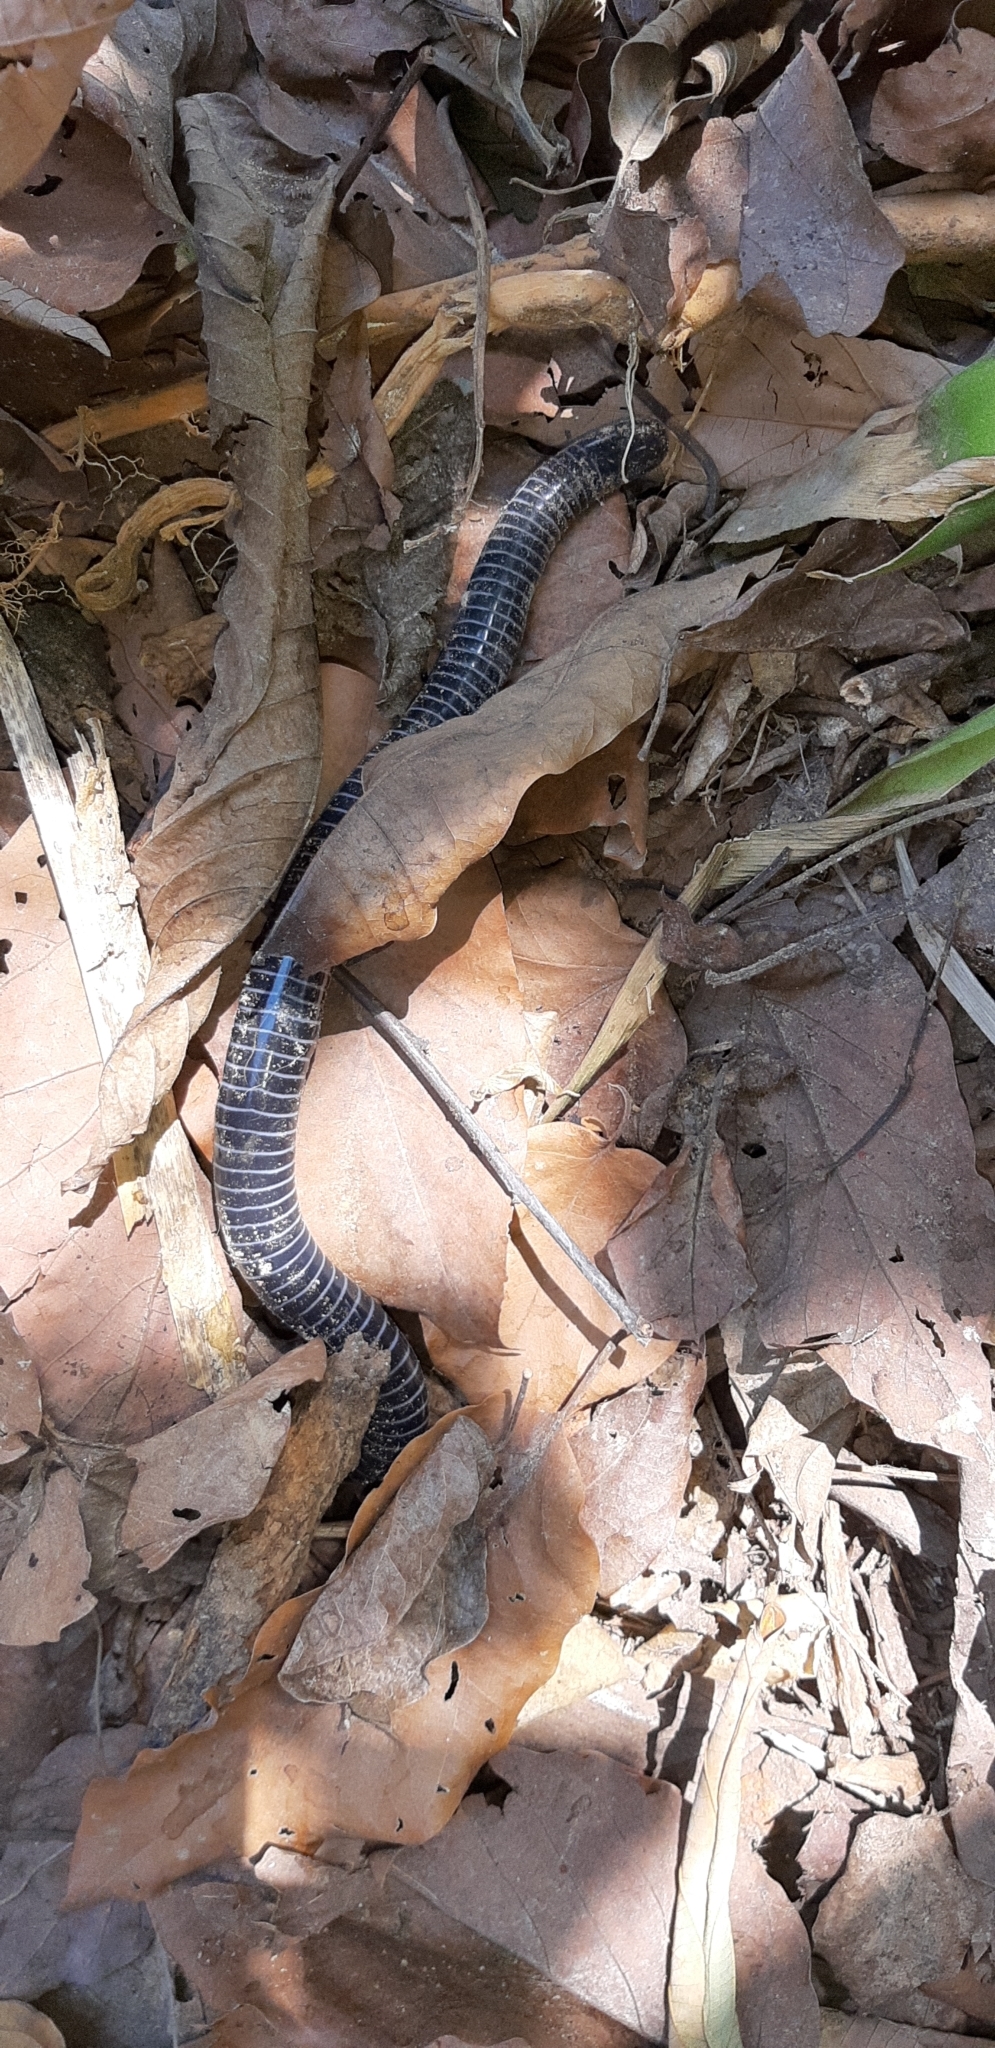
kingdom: Animalia
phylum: Chordata
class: Amphibia
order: Gymnophiona
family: Siphonopidae
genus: Siphonops
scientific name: Siphonops annulatus
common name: Ringed caecilia
